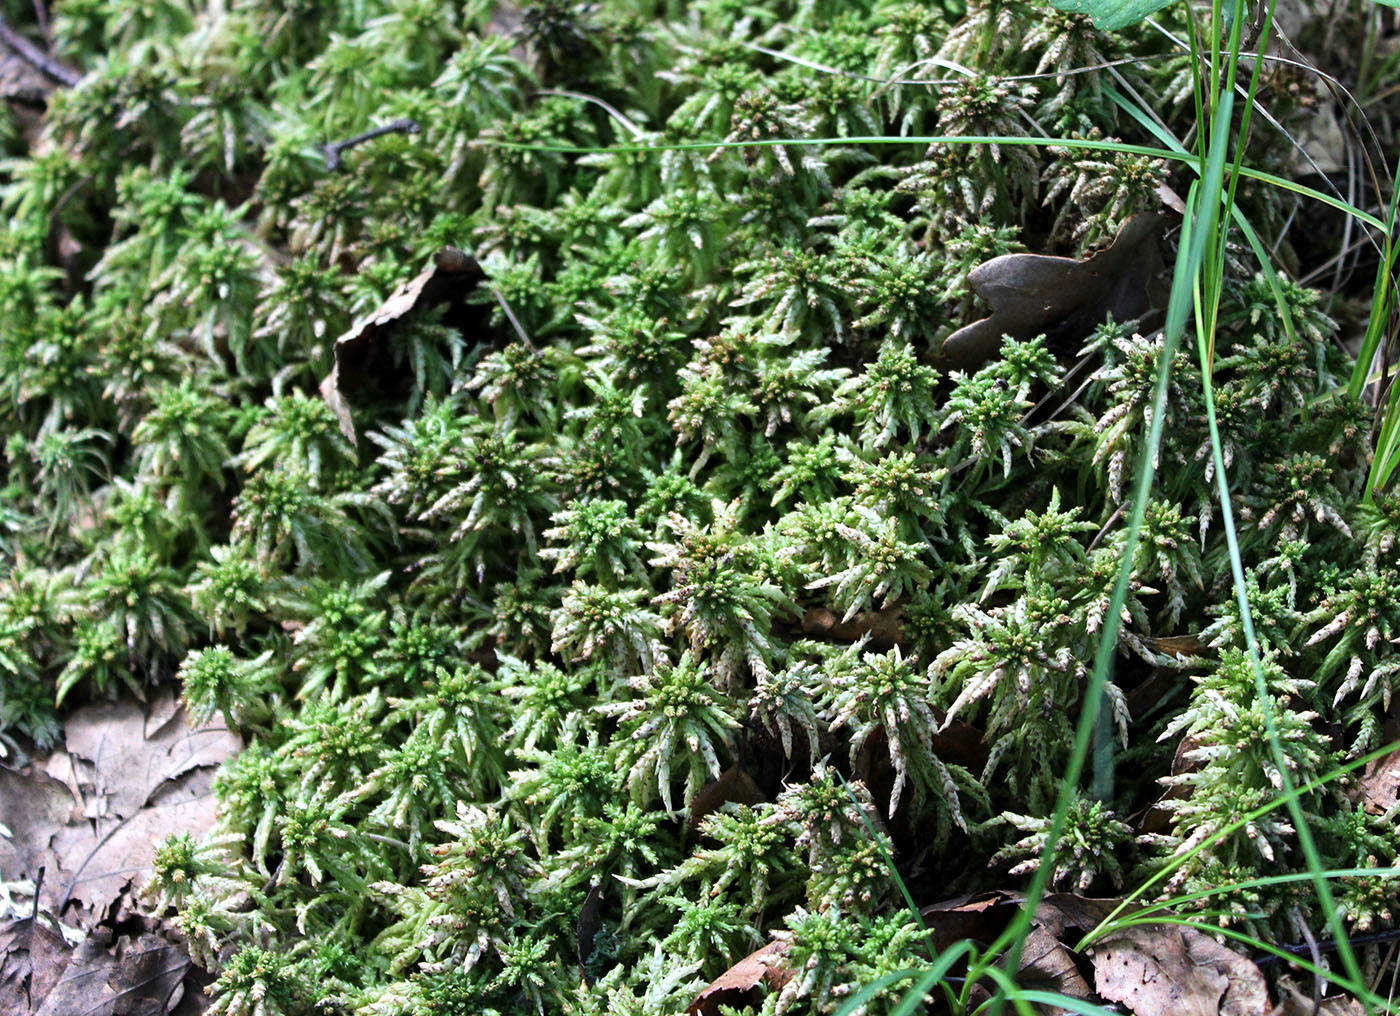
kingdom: Plantae
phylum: Bryophyta
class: Sphagnopsida
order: Sphagnales
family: Sphagnaceae
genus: Sphagnum
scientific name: Sphagnum centrale
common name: Central peat moss
